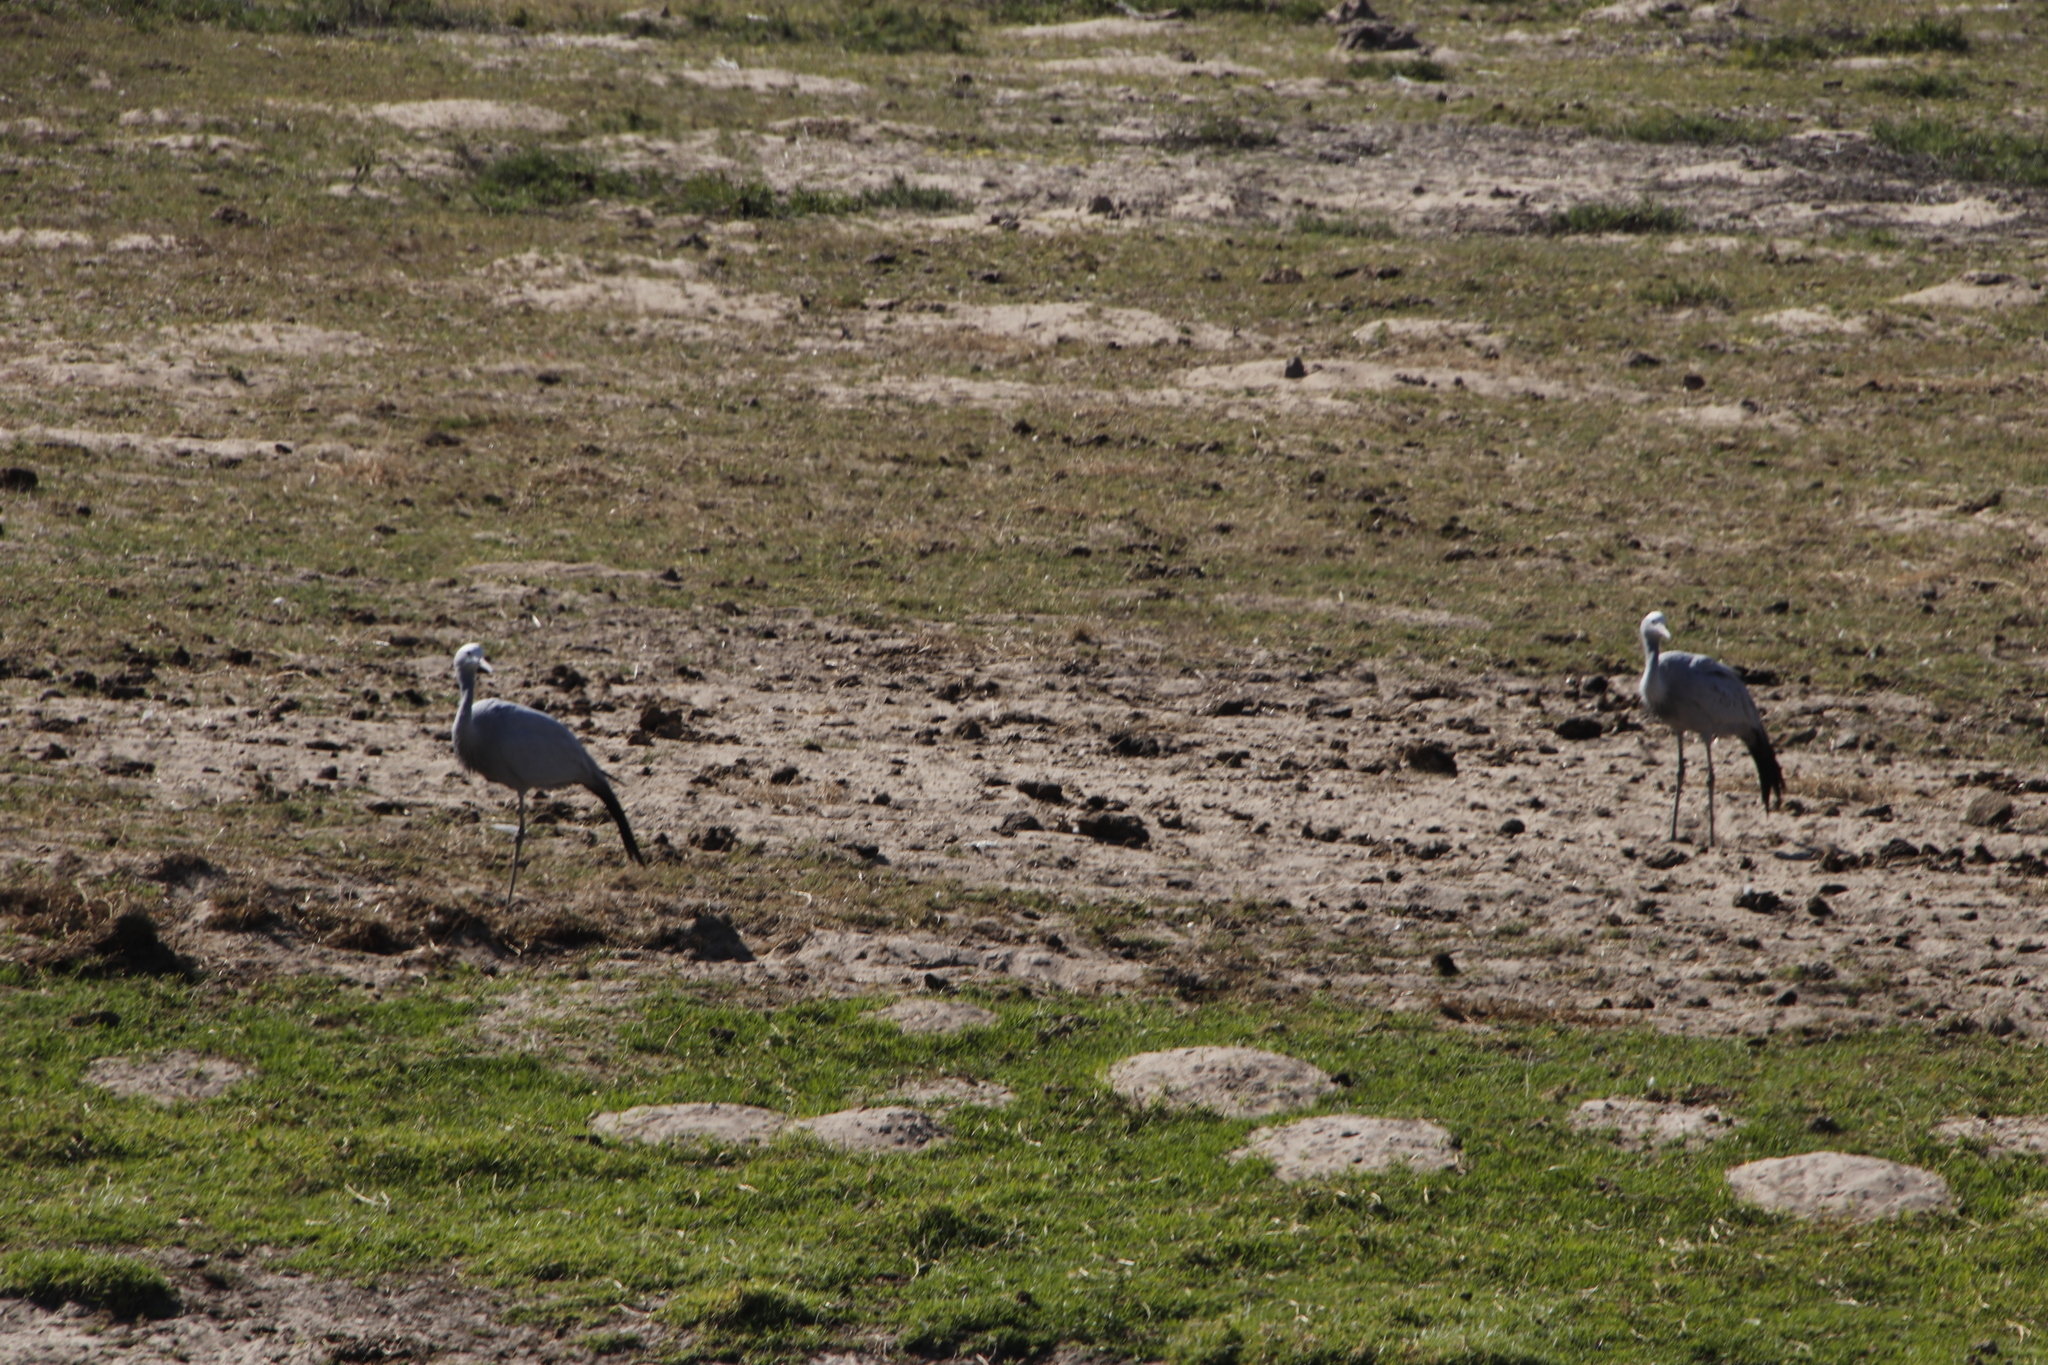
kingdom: Animalia
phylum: Chordata
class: Aves
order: Gruiformes
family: Gruidae
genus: Anthropoides
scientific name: Anthropoides paradiseus
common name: Blue crane
